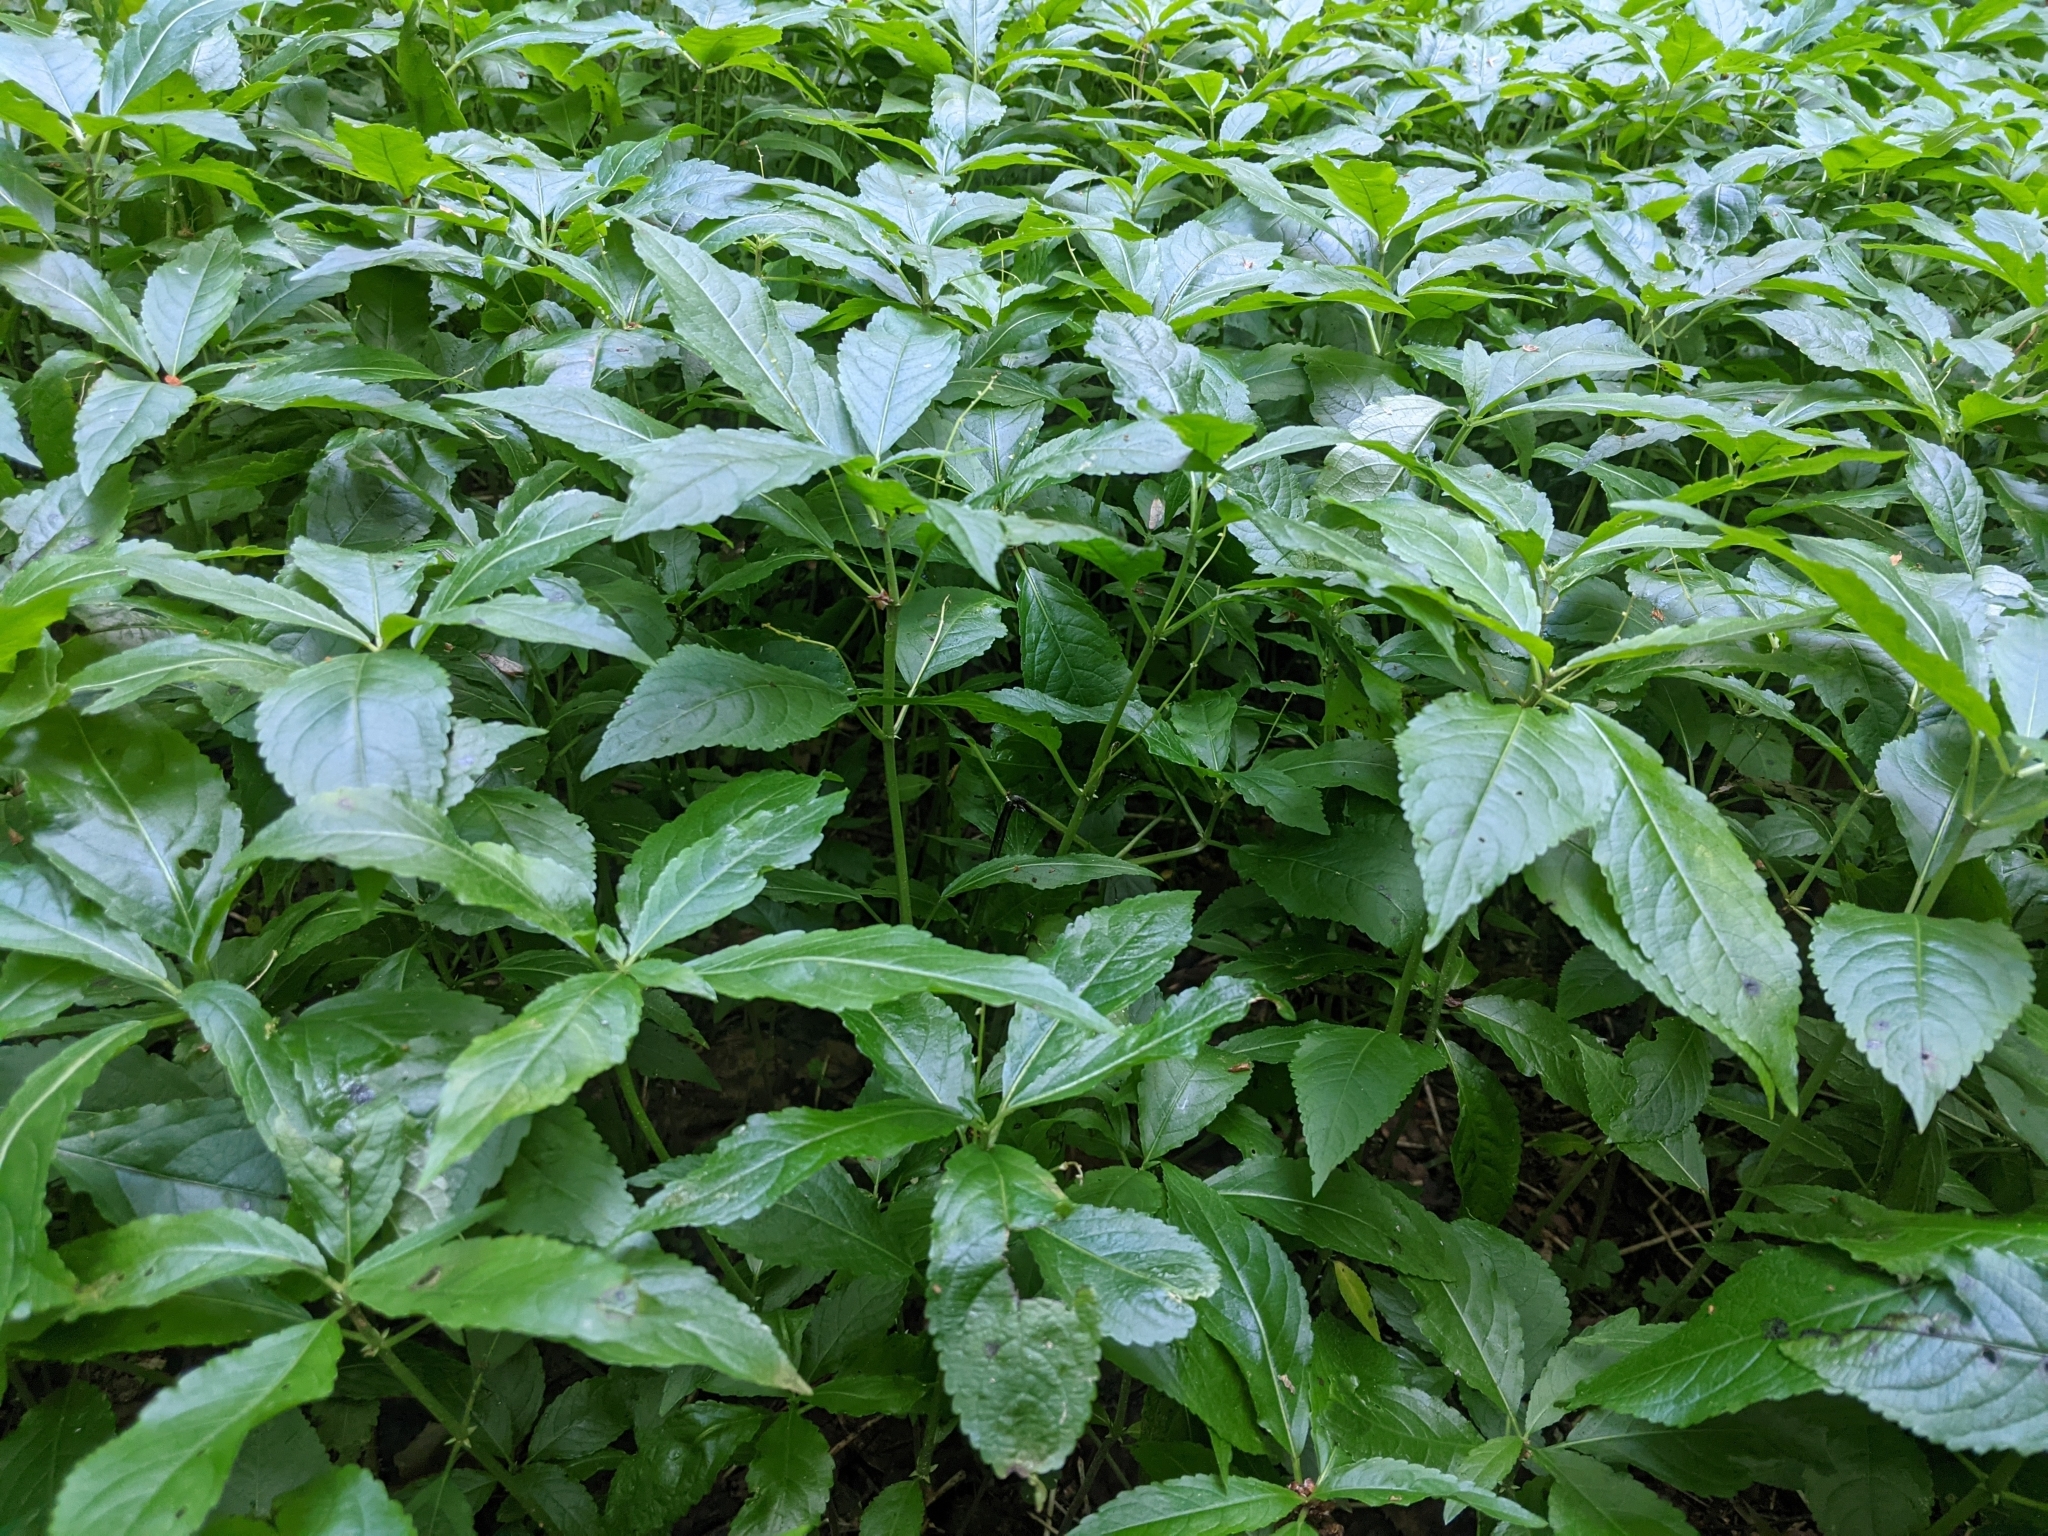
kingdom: Plantae
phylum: Tracheophyta
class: Magnoliopsida
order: Malpighiales
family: Euphorbiaceae
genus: Mercurialis
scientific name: Mercurialis perennis
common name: Dog mercury
